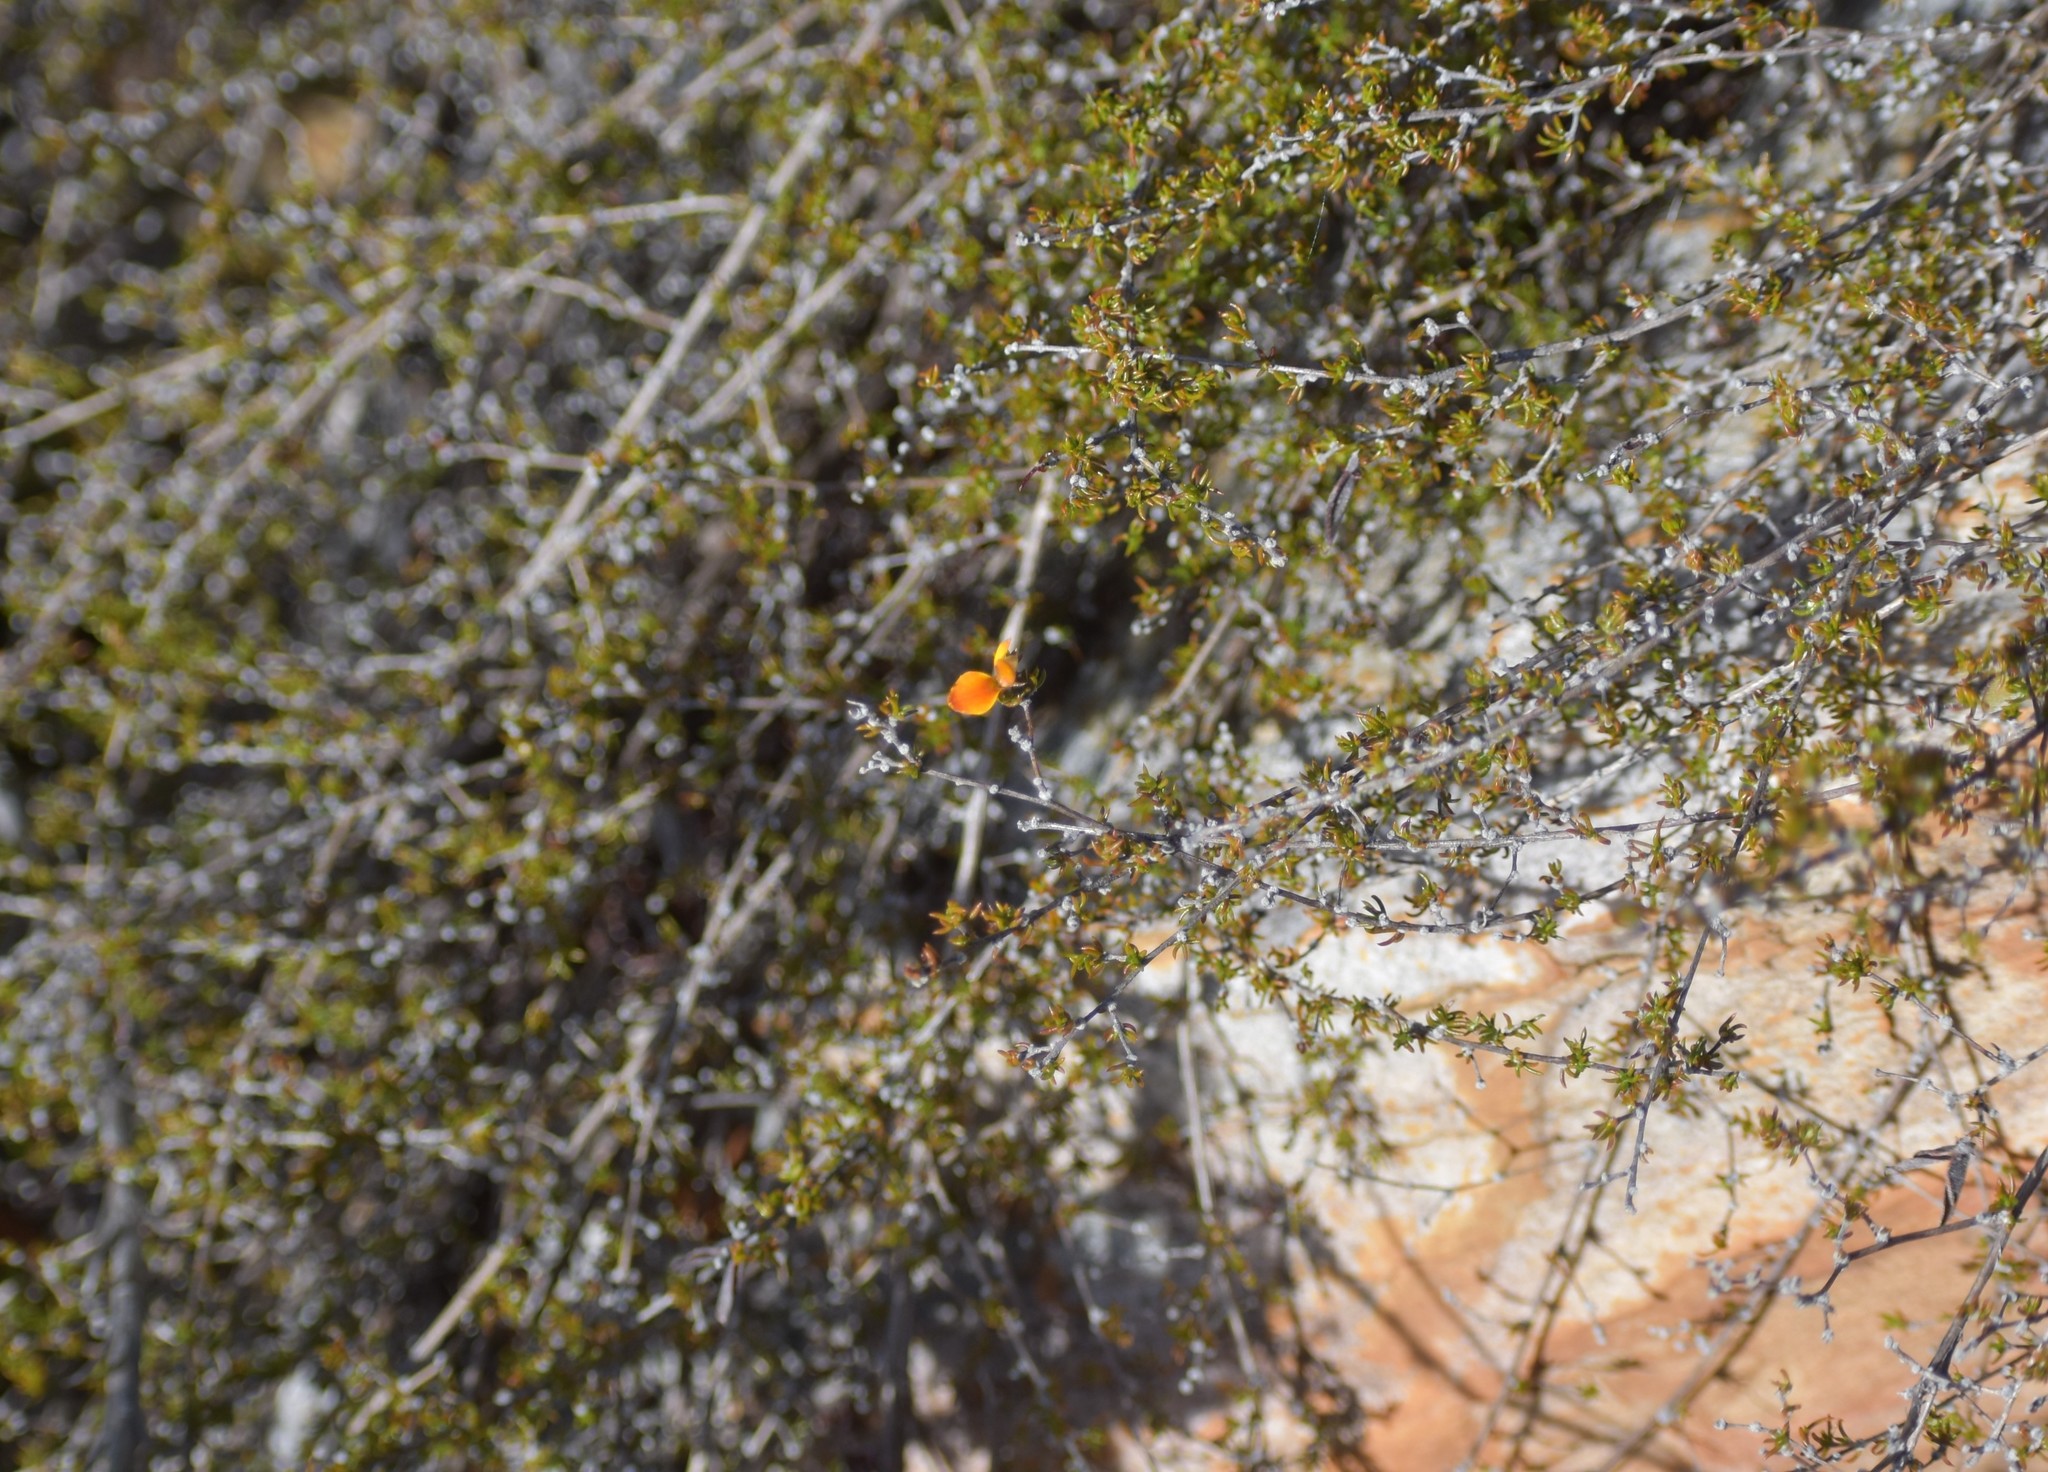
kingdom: Plantae
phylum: Tracheophyta
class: Magnoliopsida
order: Fabales
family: Fabaceae
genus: Aspalathus
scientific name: Aspalathus rubens
